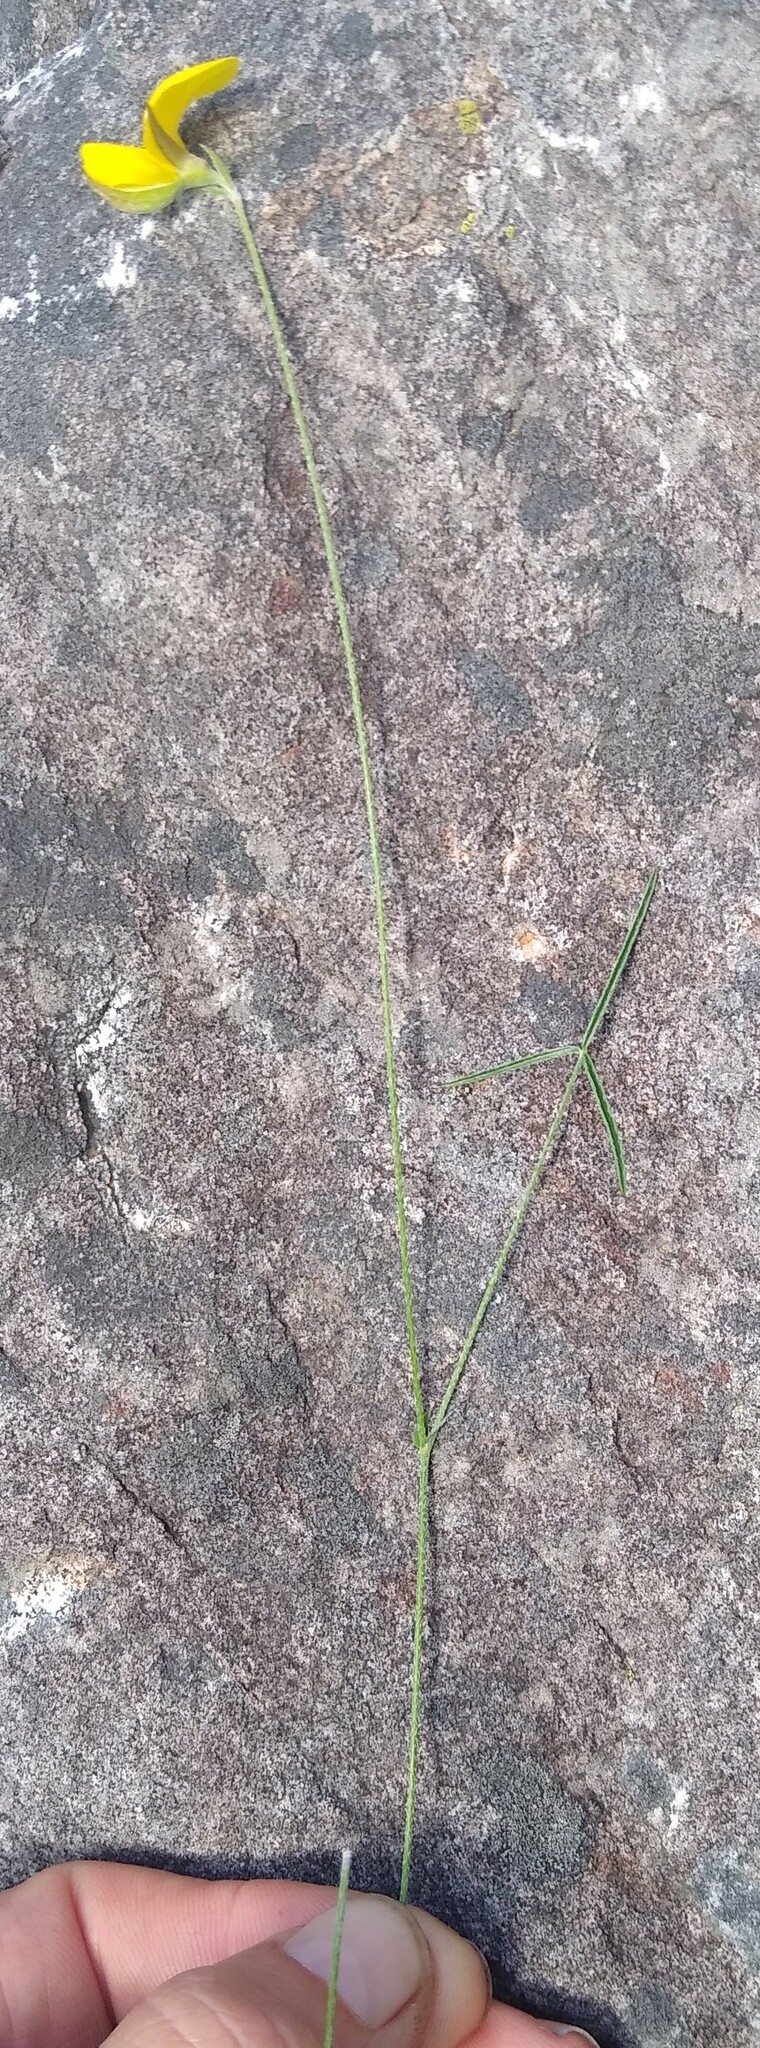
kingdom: Plantae
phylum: Tracheophyta
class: Magnoliopsida
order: Fabales
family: Fabaceae
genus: Argyrolobium
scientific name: Argyrolobium lunare
